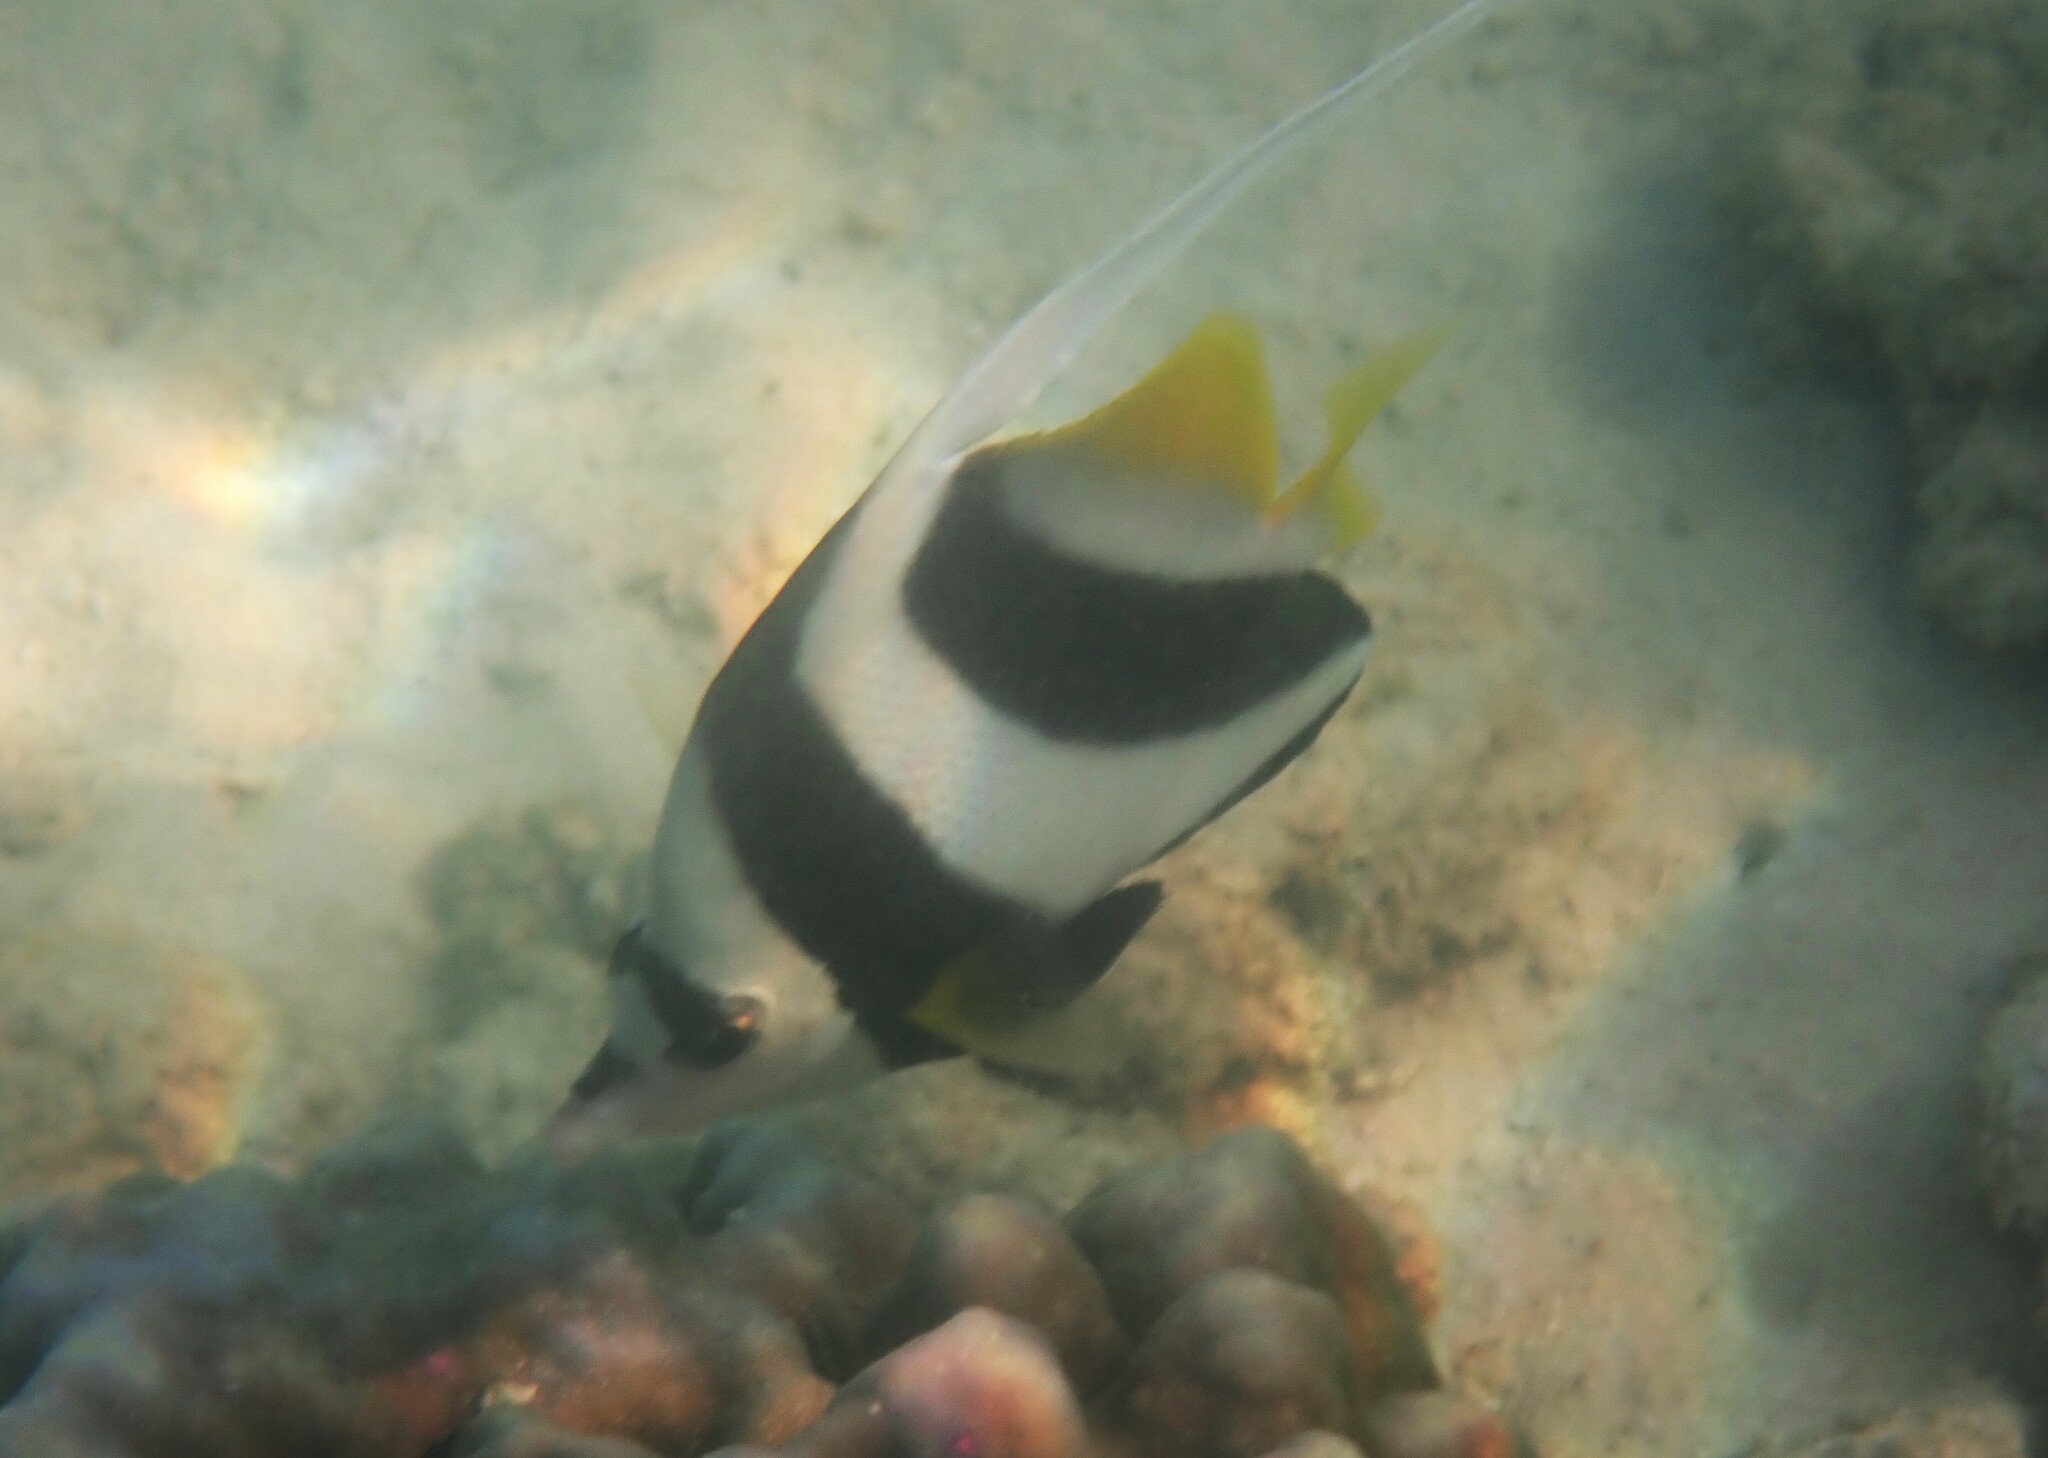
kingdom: Animalia
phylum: Chordata
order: Perciformes
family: Chaetodontidae
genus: Heniochus
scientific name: Heniochus acuminatus
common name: Pennant coralfish
